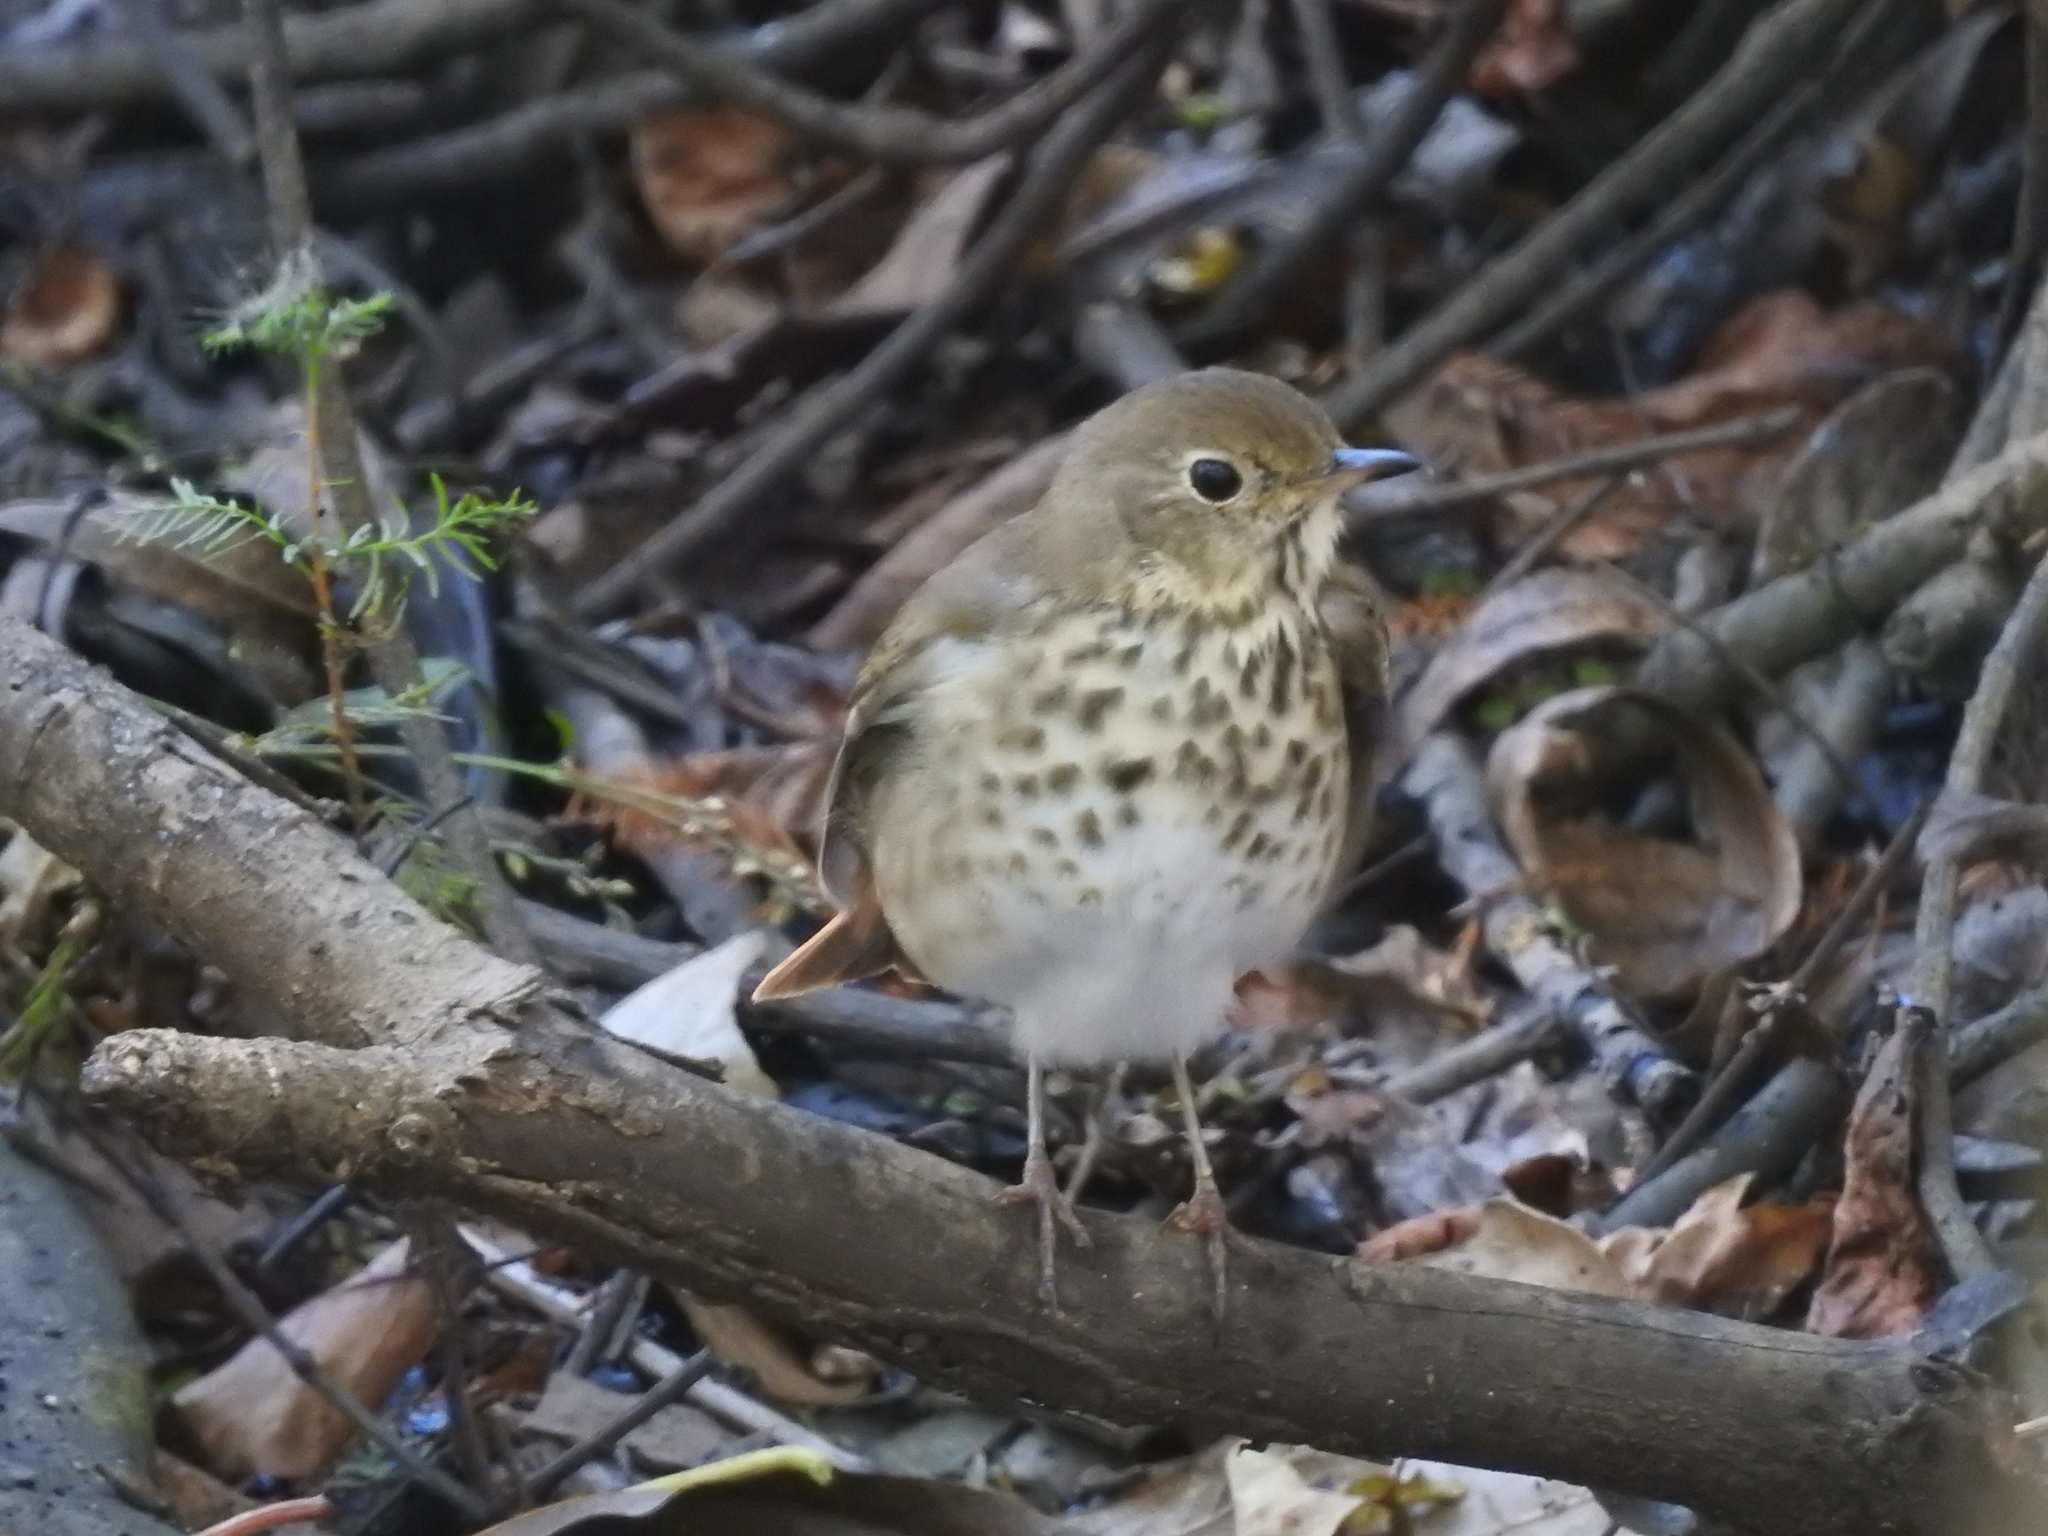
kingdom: Animalia
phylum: Chordata
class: Aves
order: Passeriformes
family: Turdidae
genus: Catharus
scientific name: Catharus guttatus
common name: Hermit thrush
